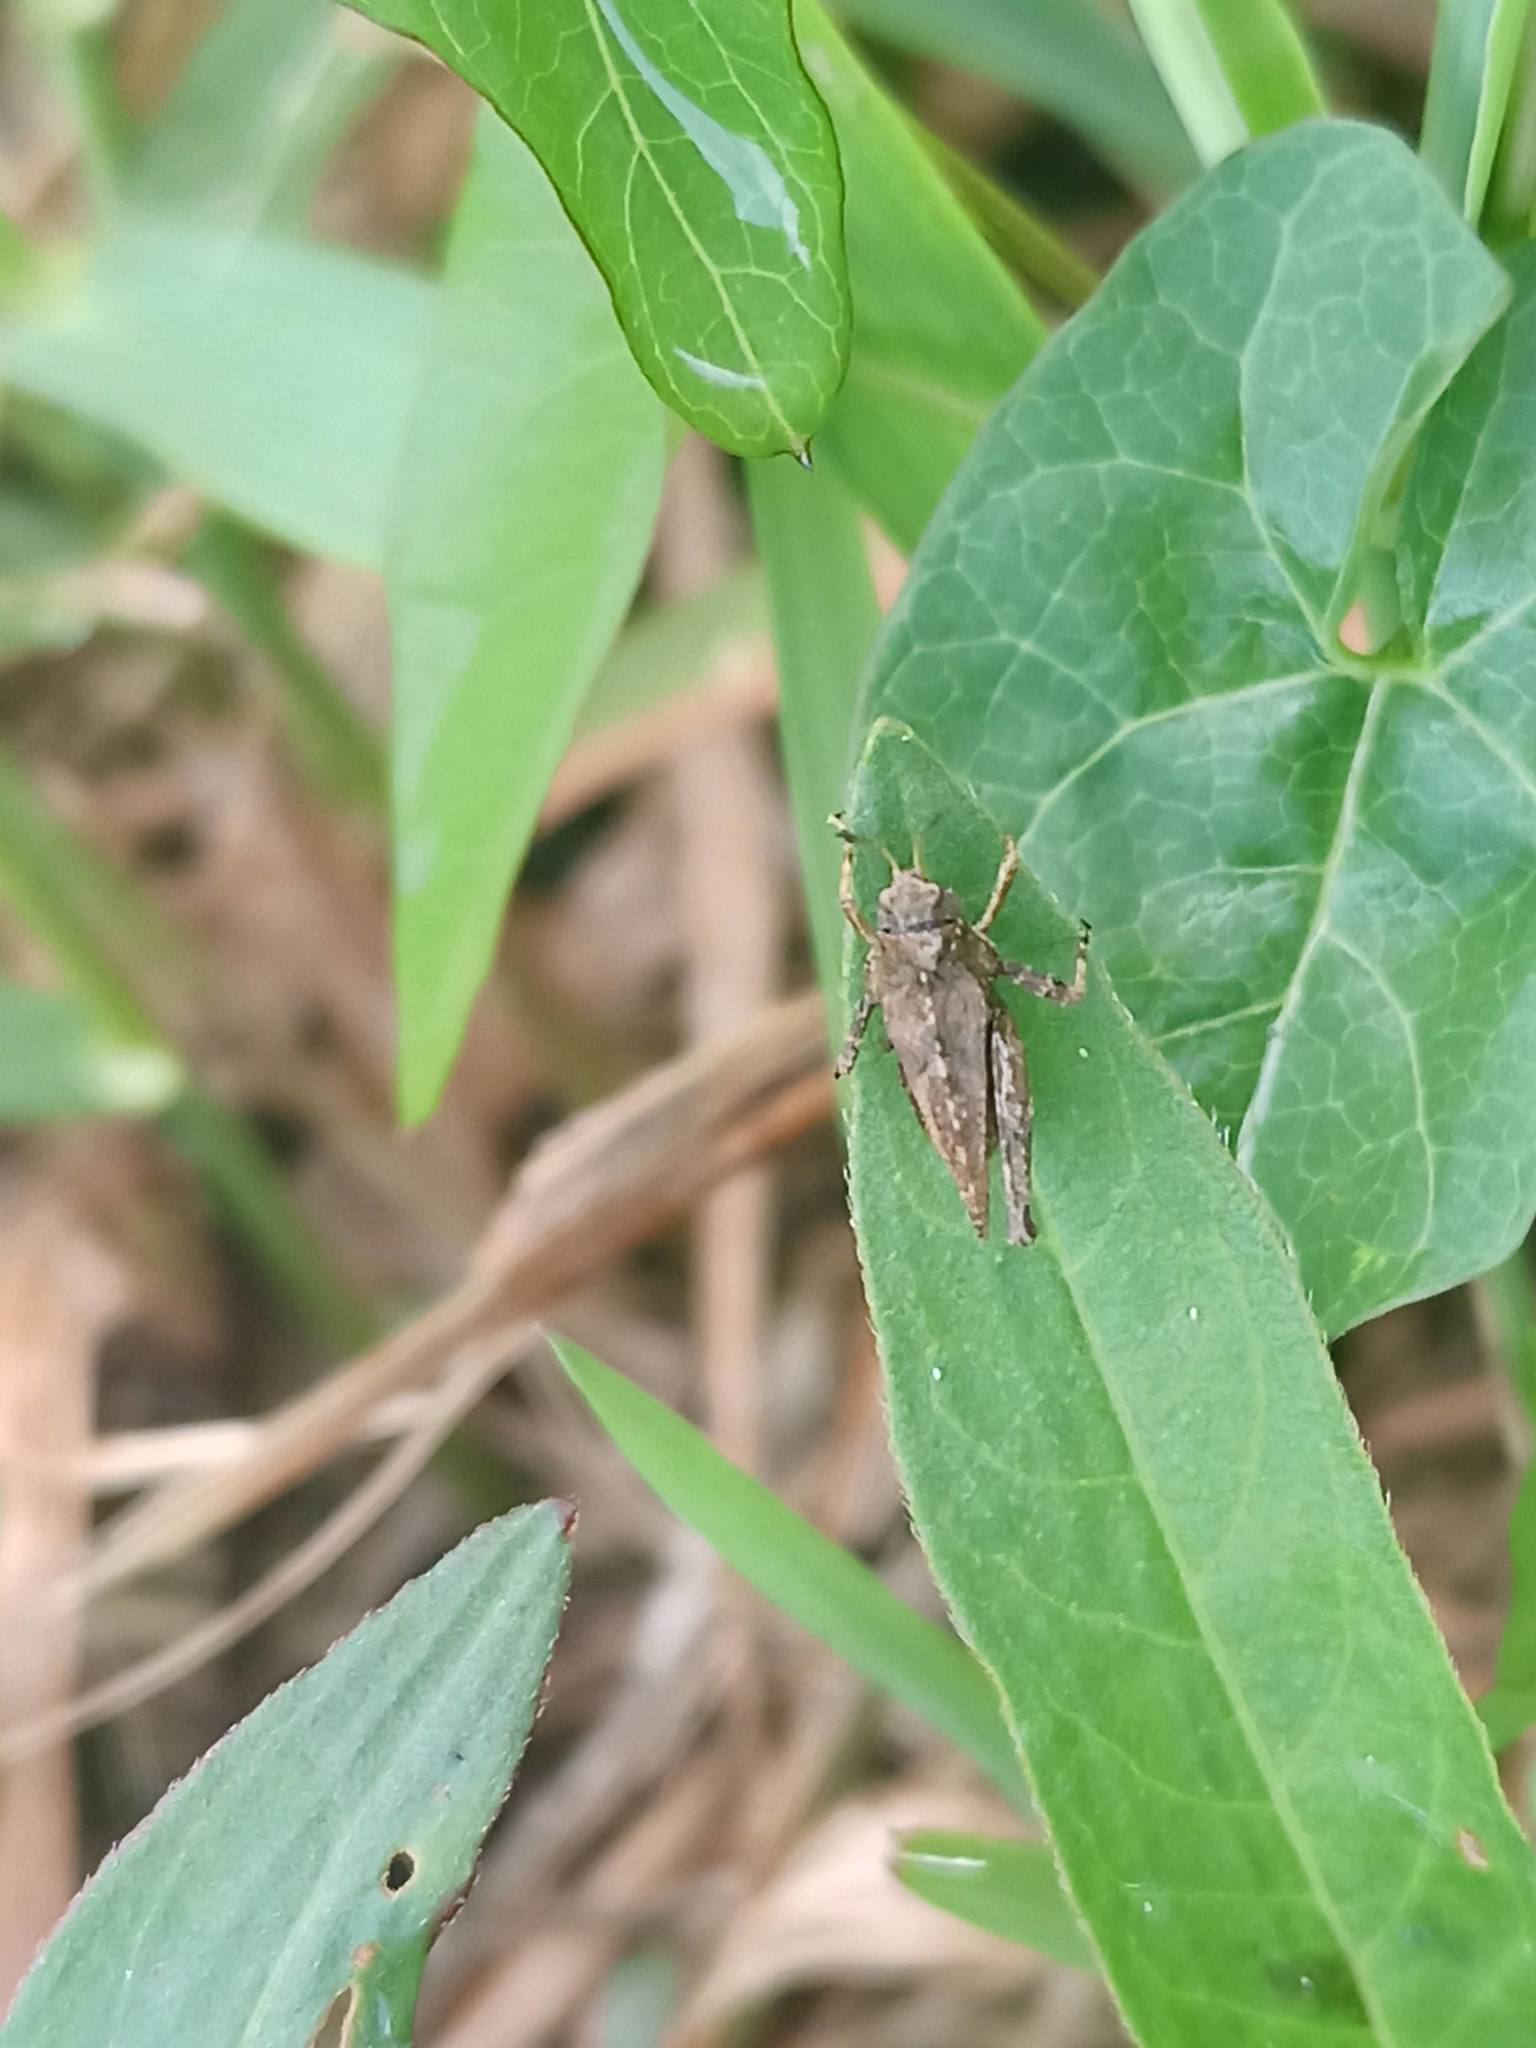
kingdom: Animalia
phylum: Arthropoda
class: Insecta
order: Orthoptera
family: Tetrigidae
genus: Tetrix
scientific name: Tetrix undulata
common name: Common groundhopper
